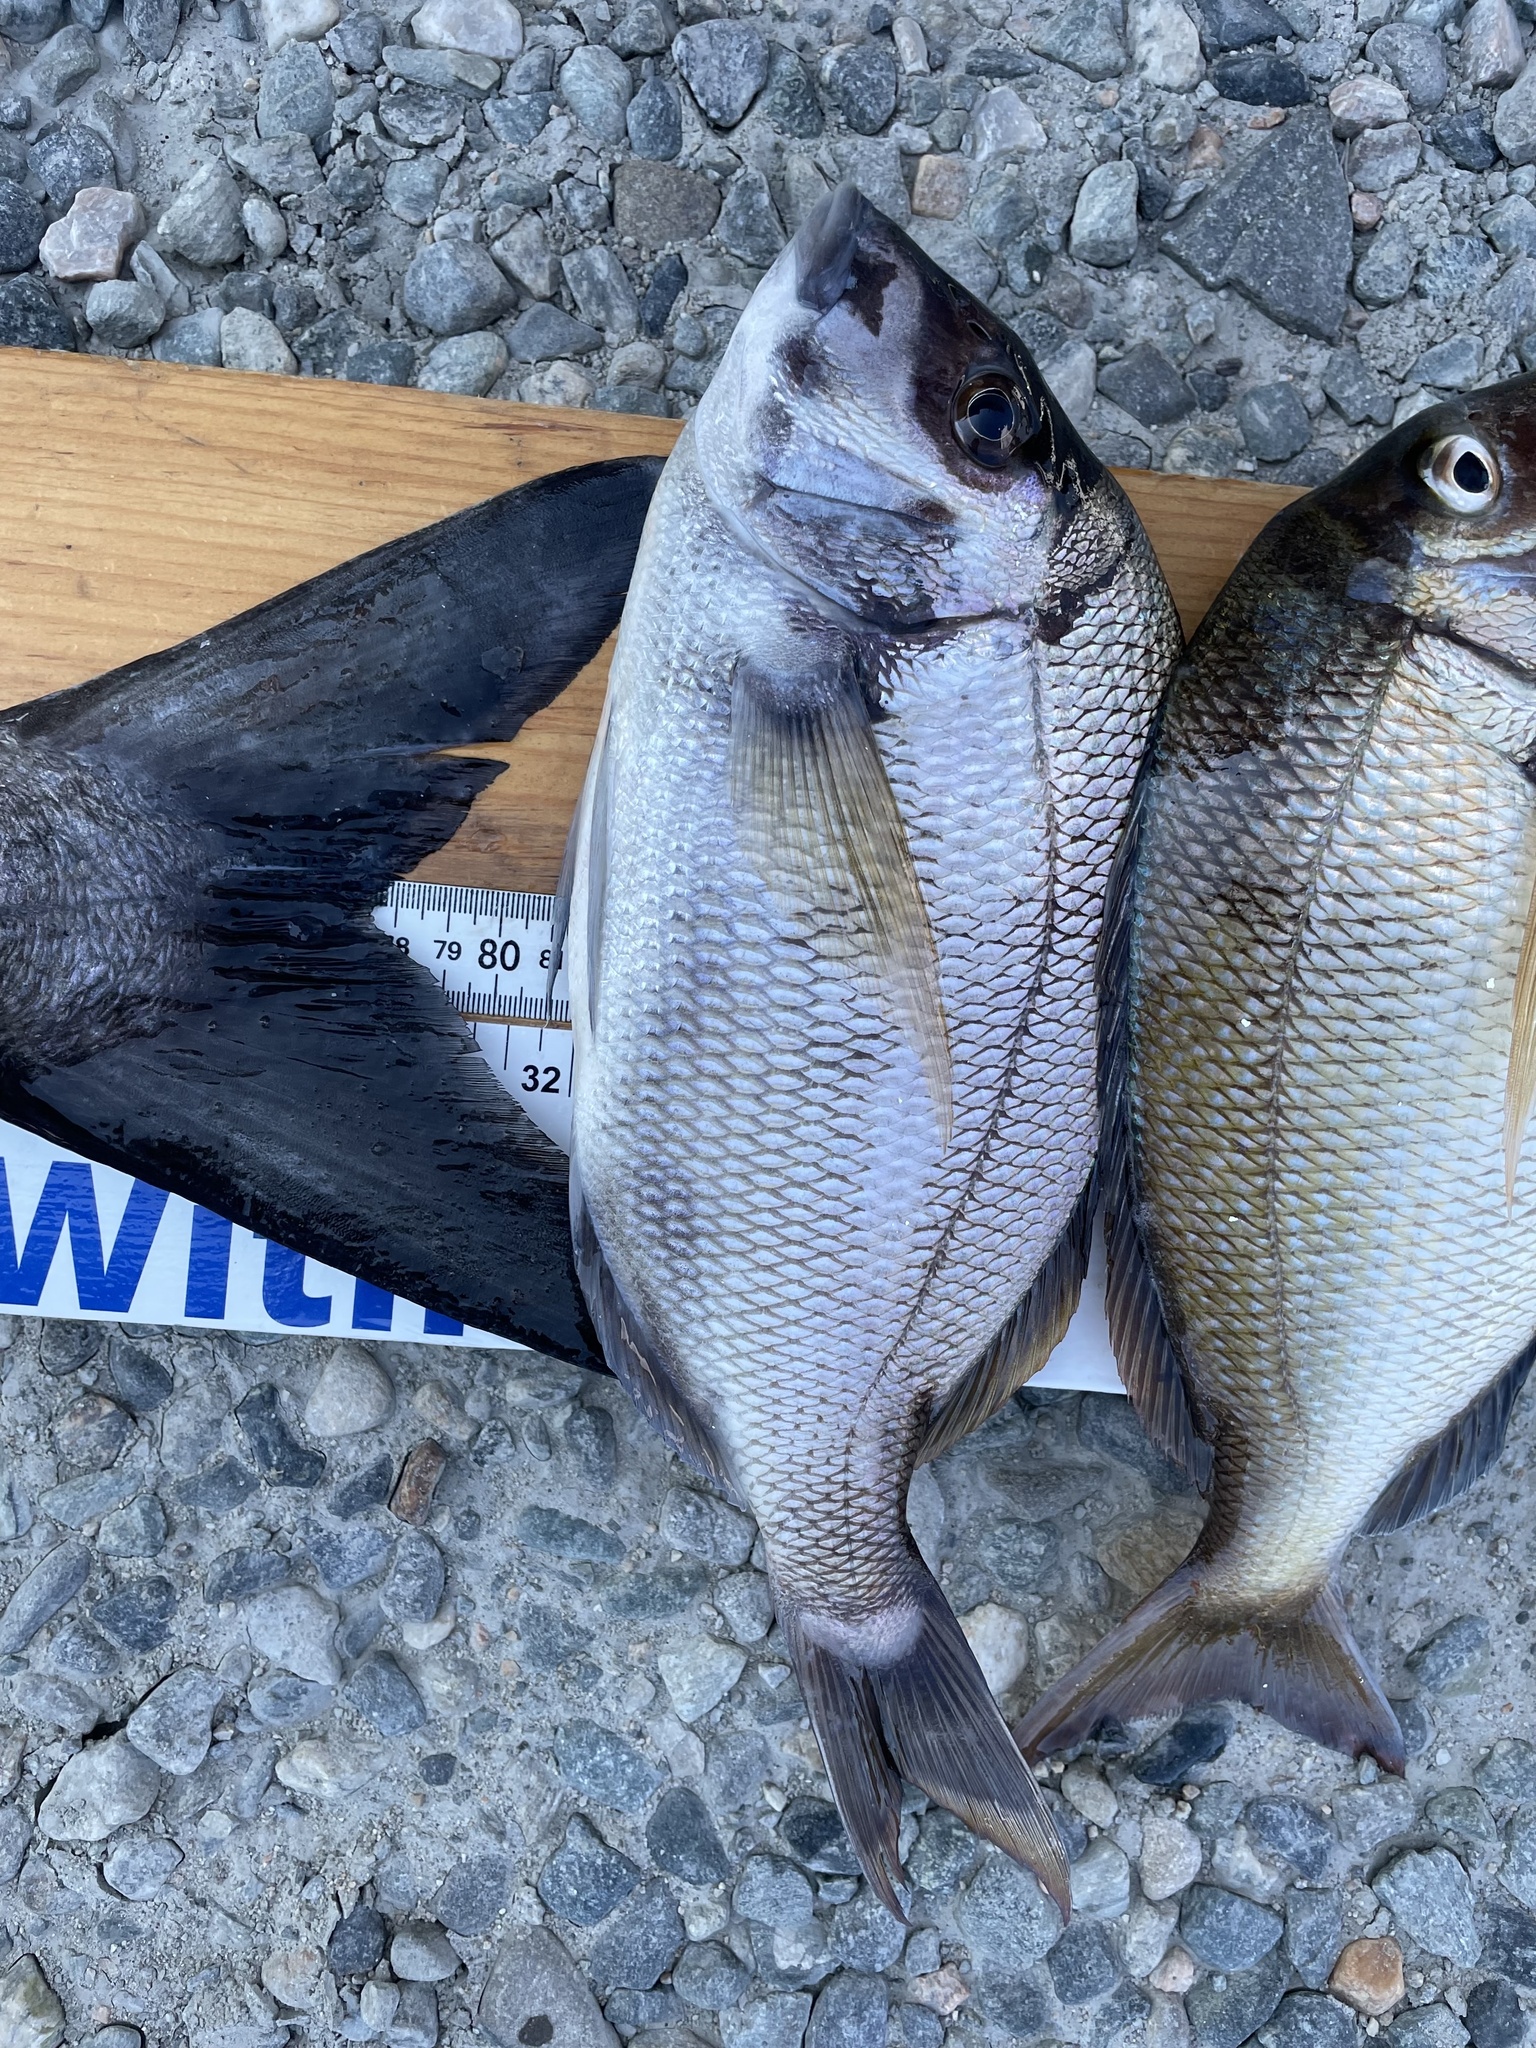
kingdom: Animalia
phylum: Chordata
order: Perciformes
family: Sparidae
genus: Stenotomus
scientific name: Stenotomus chrysops
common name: Scup
